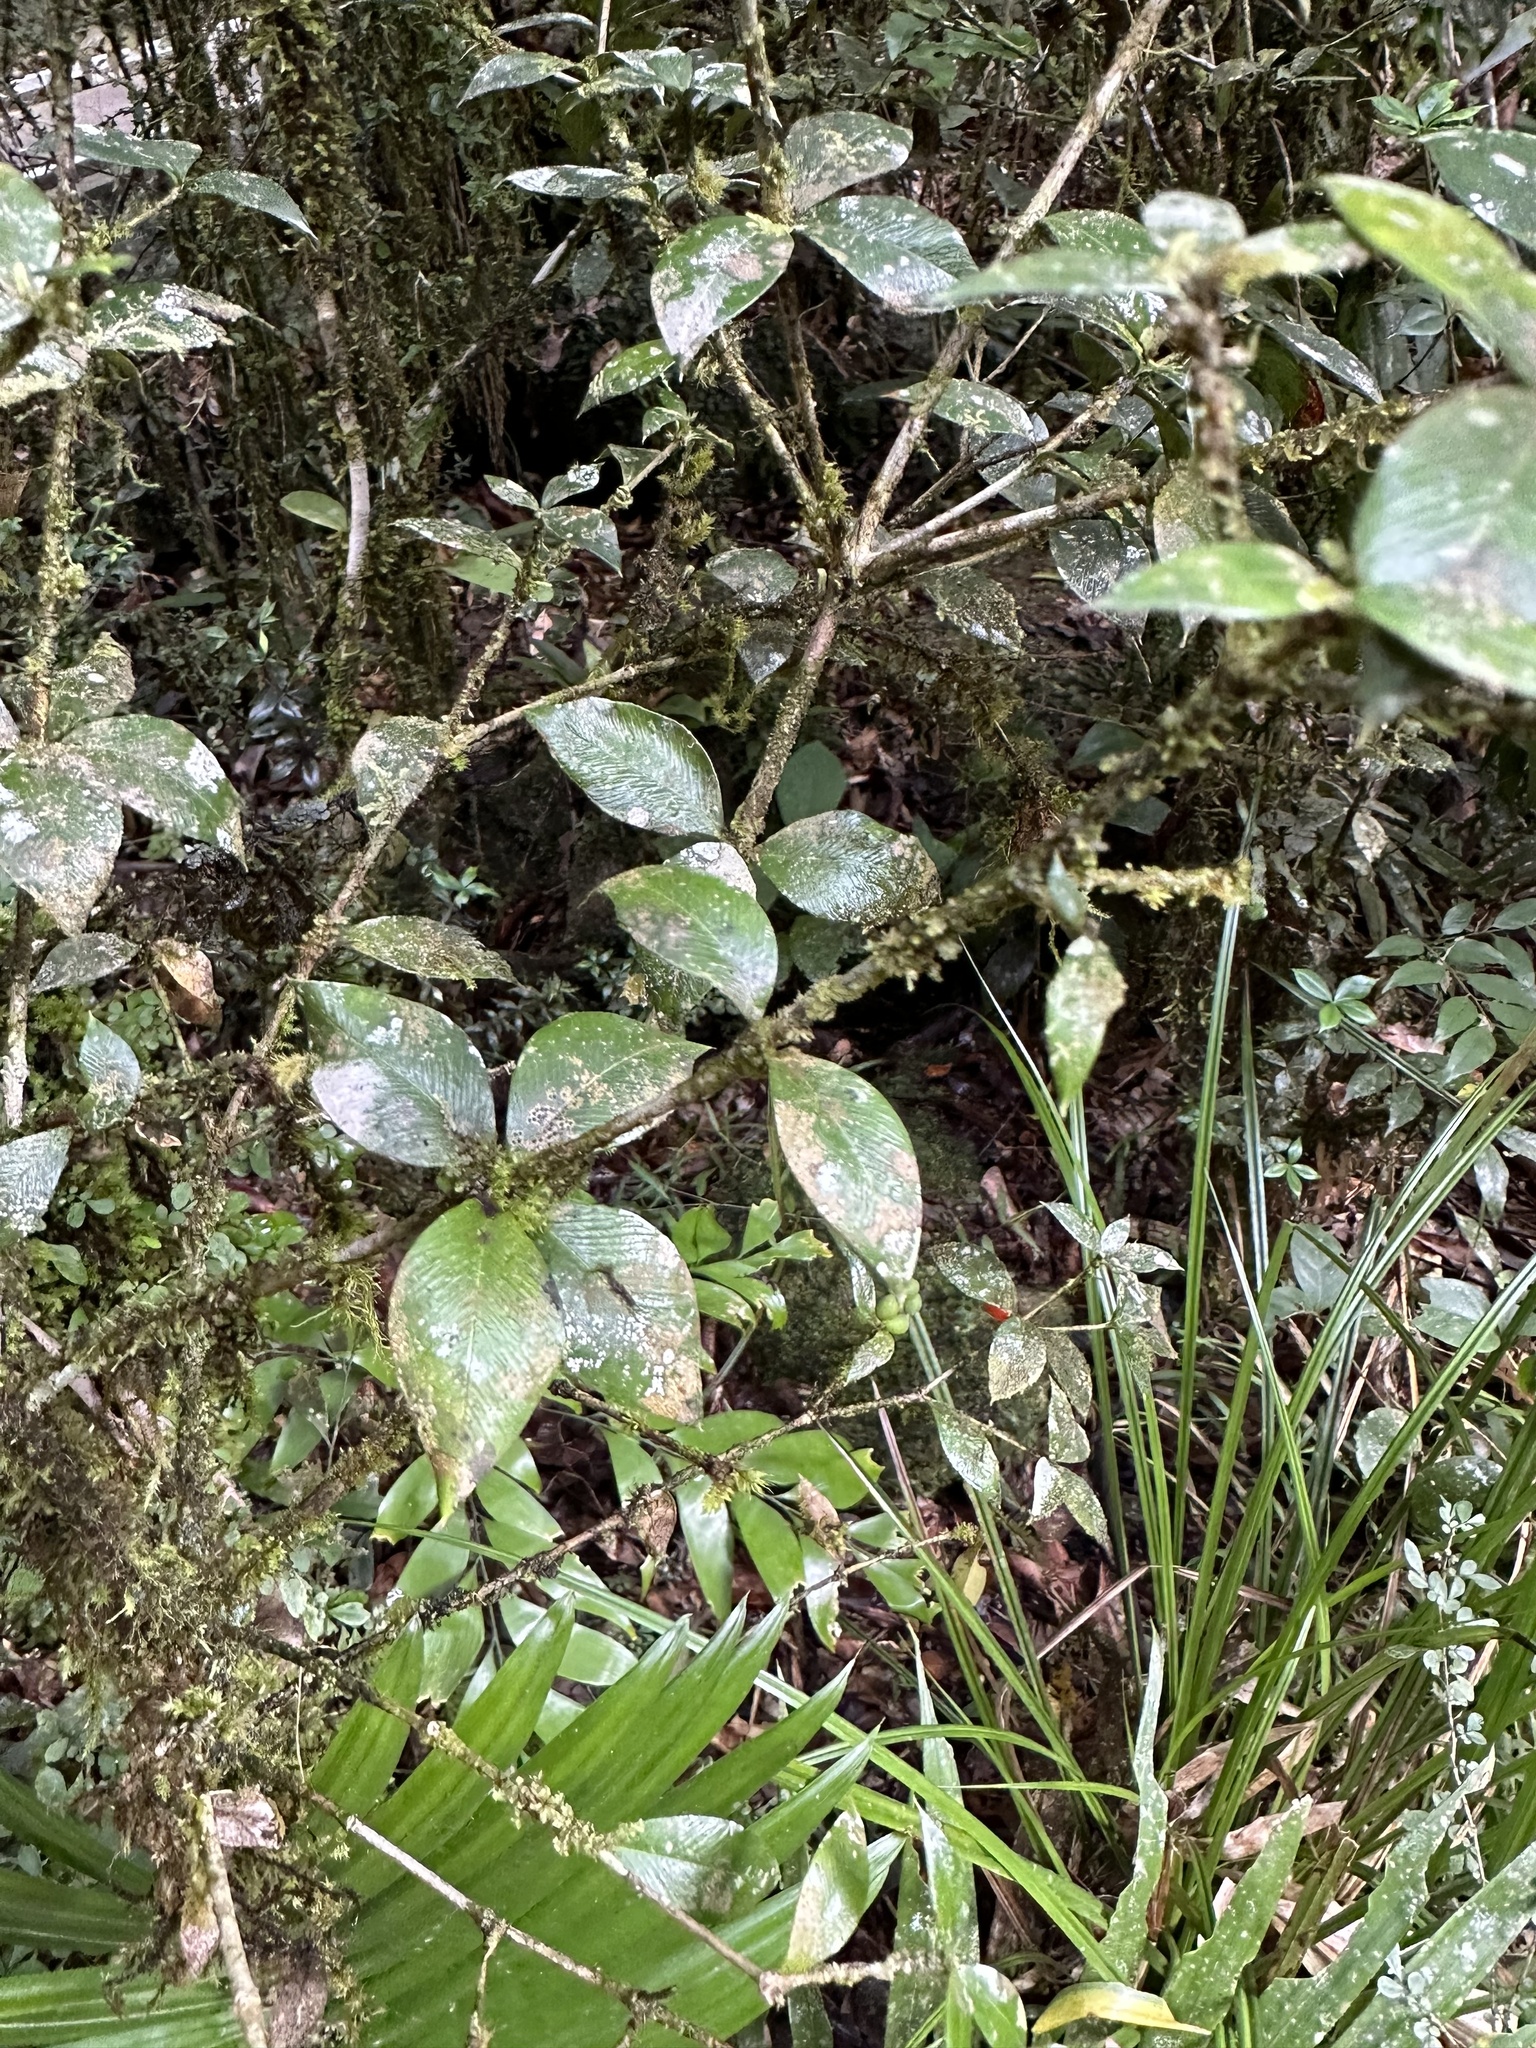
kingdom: Plantae
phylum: Tracheophyta
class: Magnoliopsida
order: Gentianales
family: Apocynaceae
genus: Alyxia
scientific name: Alyxia ruscifolia
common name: Chainfruit
